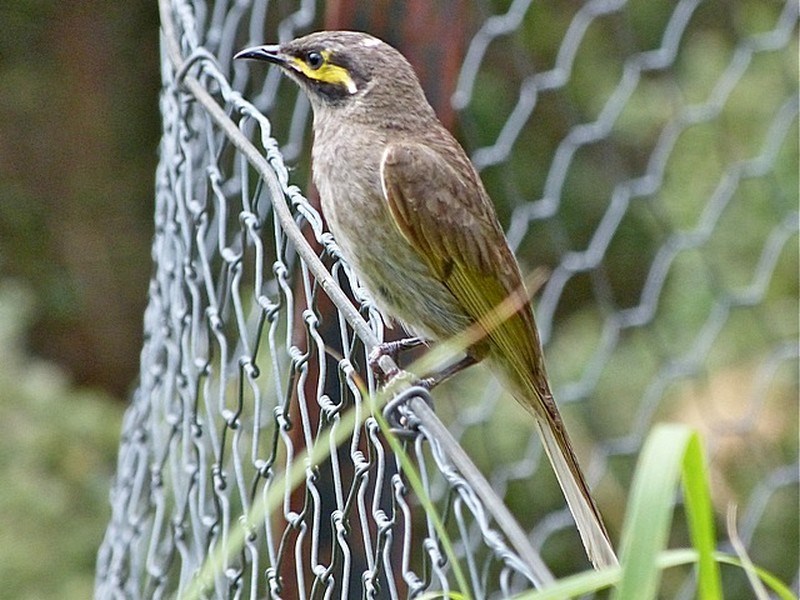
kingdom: Animalia
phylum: Chordata
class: Aves
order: Passeriformes
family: Meliphagidae
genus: Caligavis
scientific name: Caligavis chrysops
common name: Yellow-faced honeyeater
